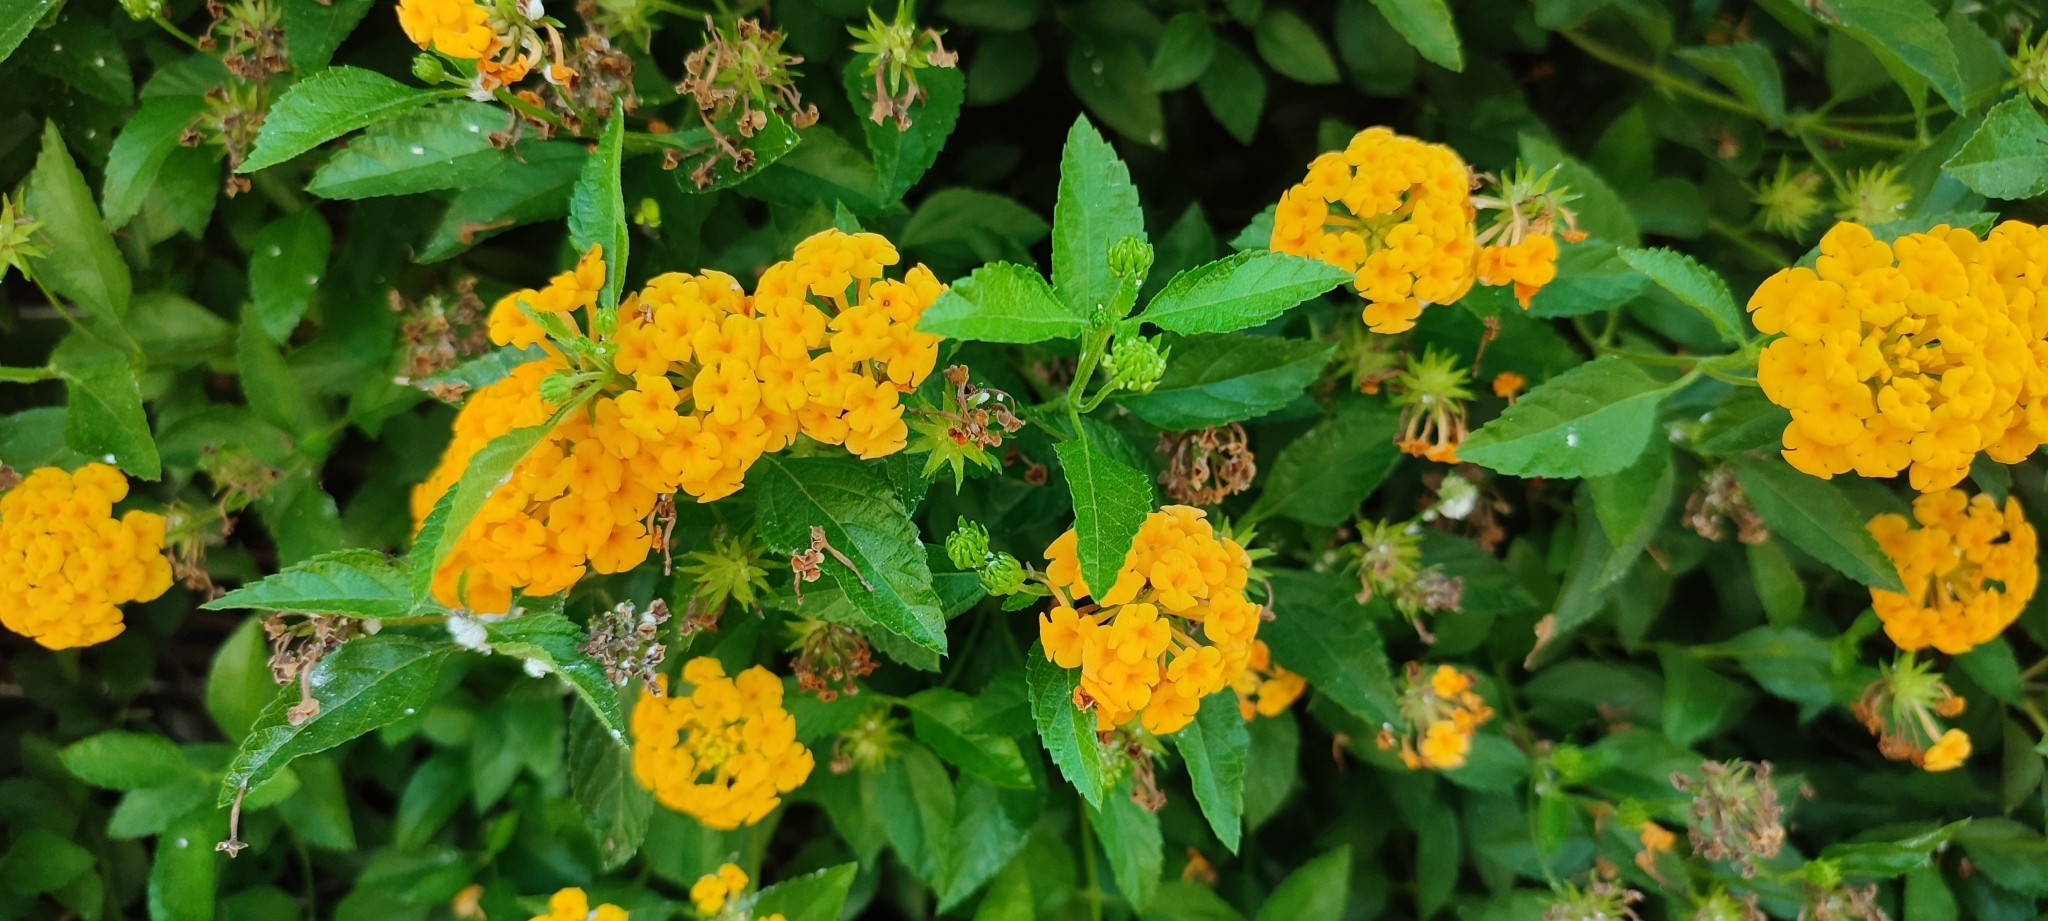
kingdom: Plantae
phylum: Tracheophyta
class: Magnoliopsida
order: Lamiales
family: Verbenaceae
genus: Lantana
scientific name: Lantana camara
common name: Lantana
